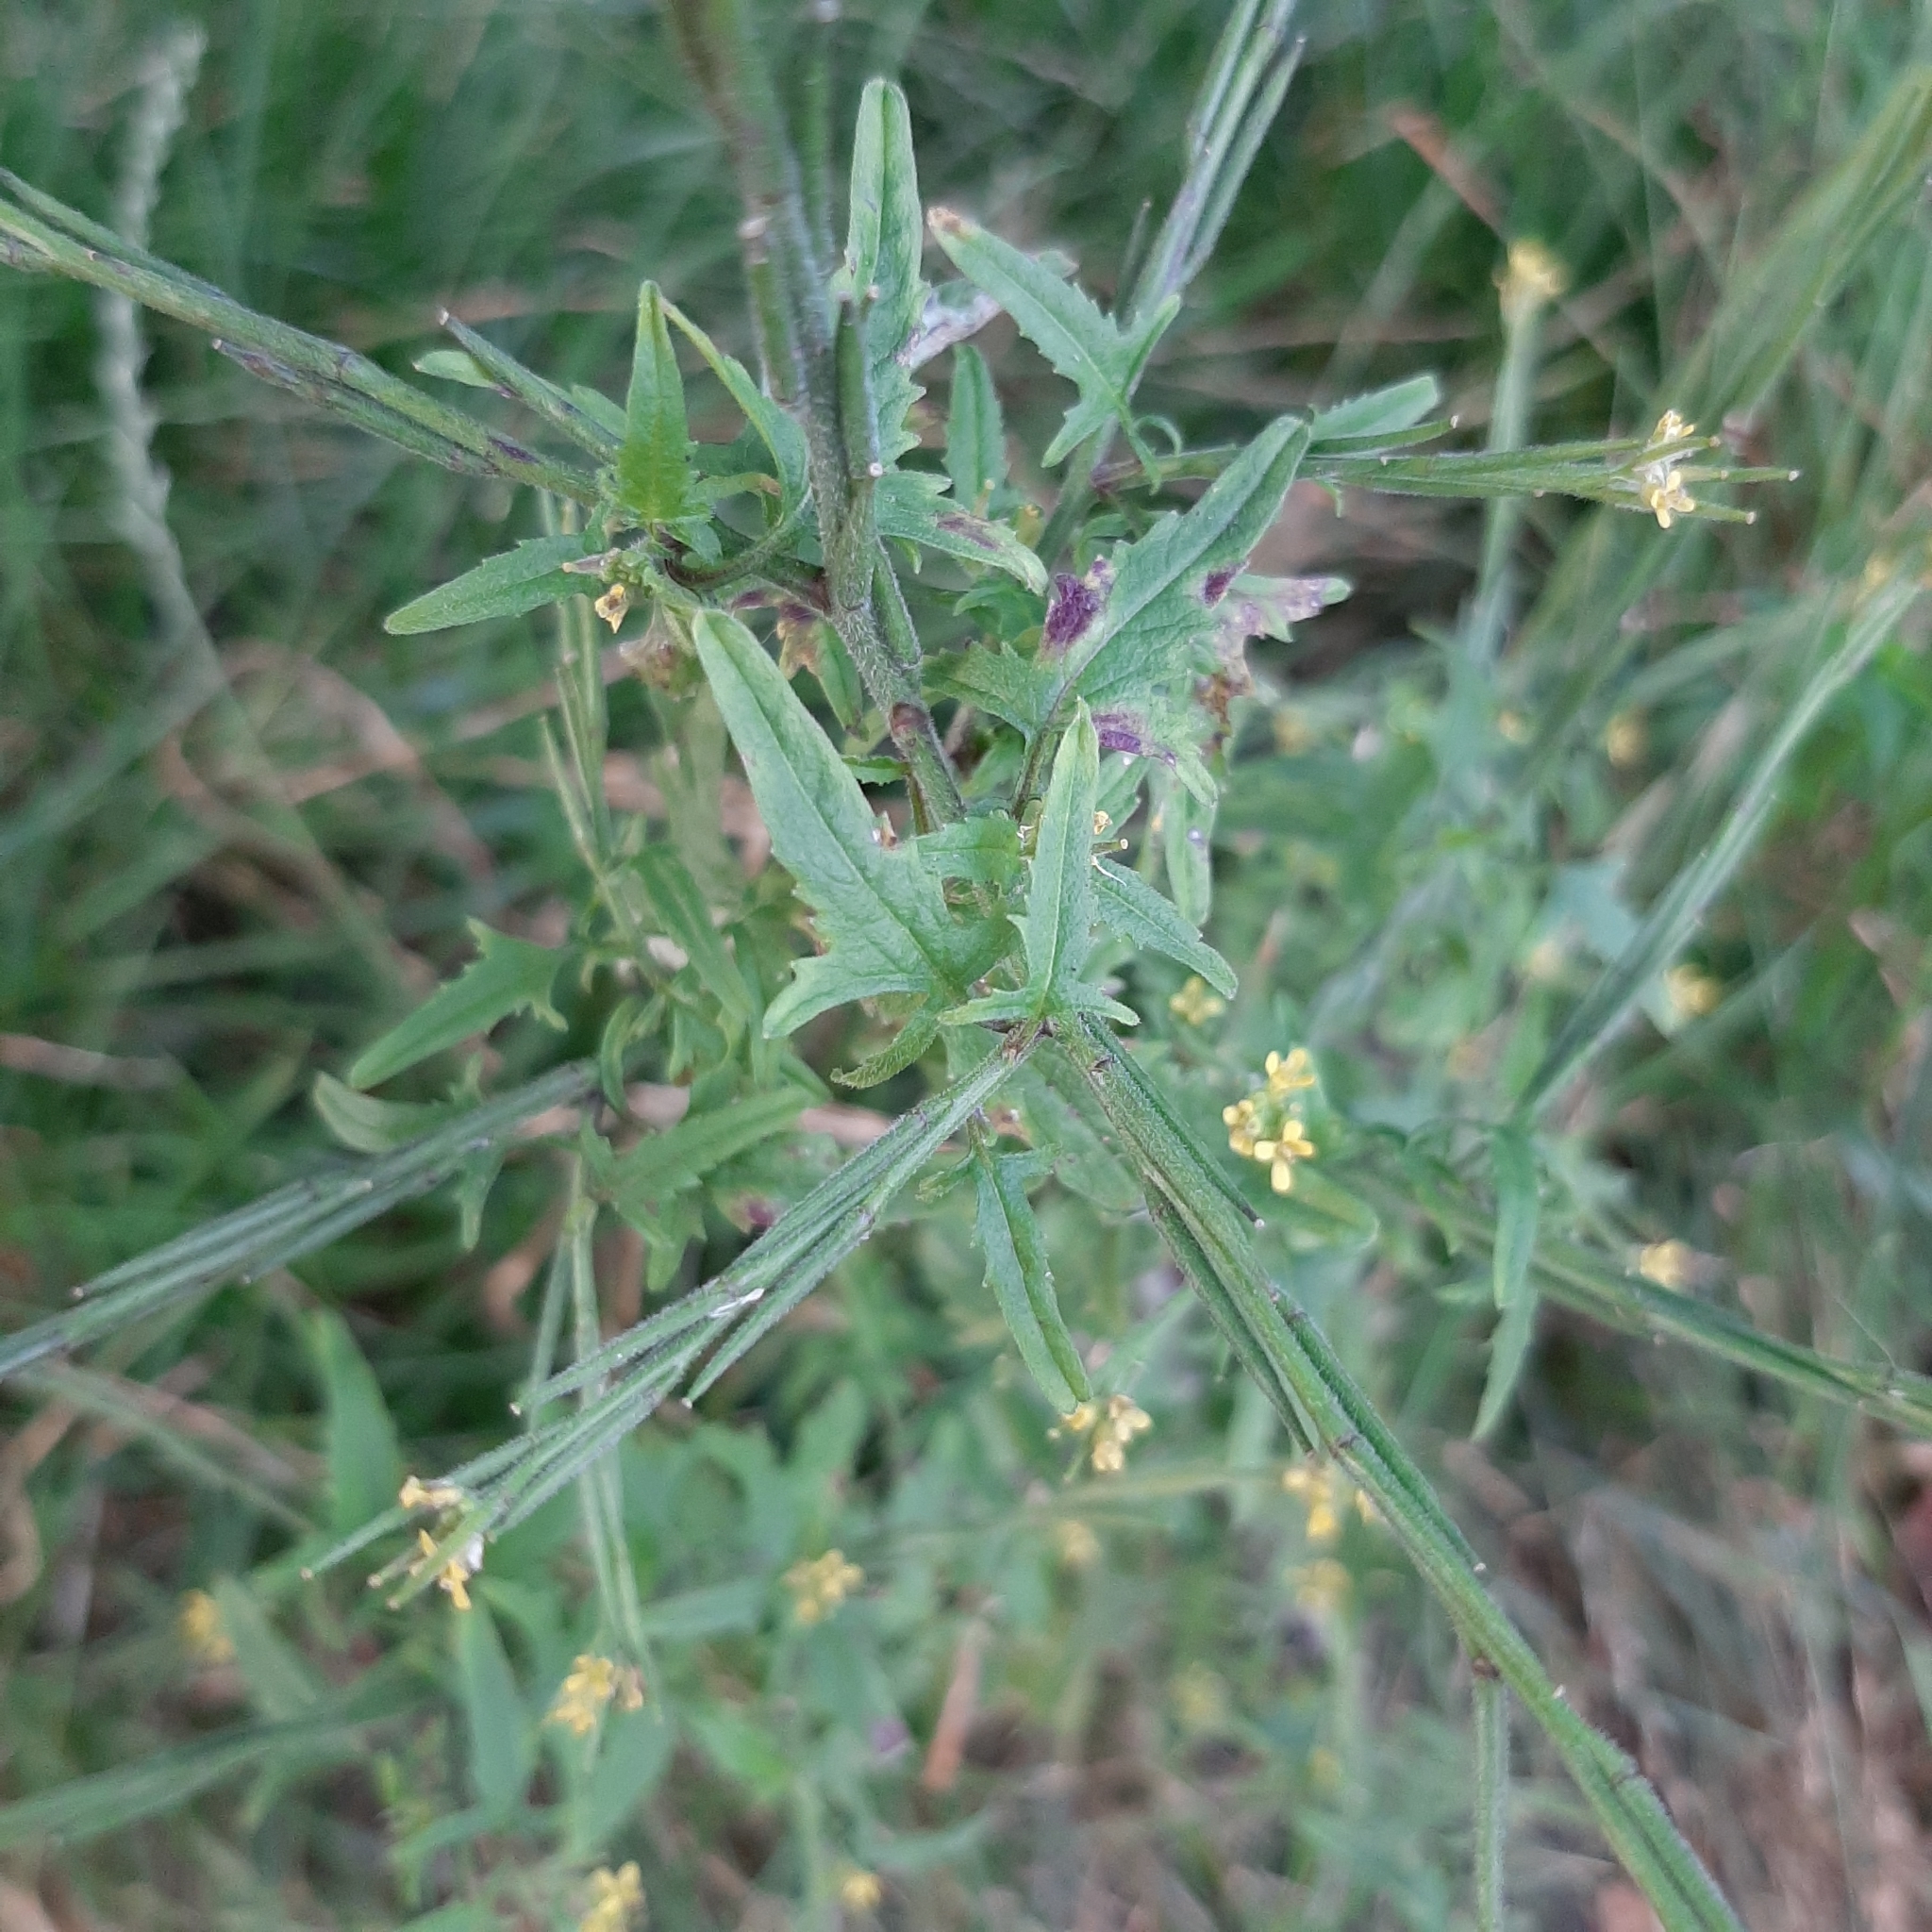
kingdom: Plantae
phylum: Tracheophyta
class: Magnoliopsida
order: Brassicales
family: Brassicaceae
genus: Sisymbrium
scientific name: Sisymbrium officinale
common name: Hedge mustard
